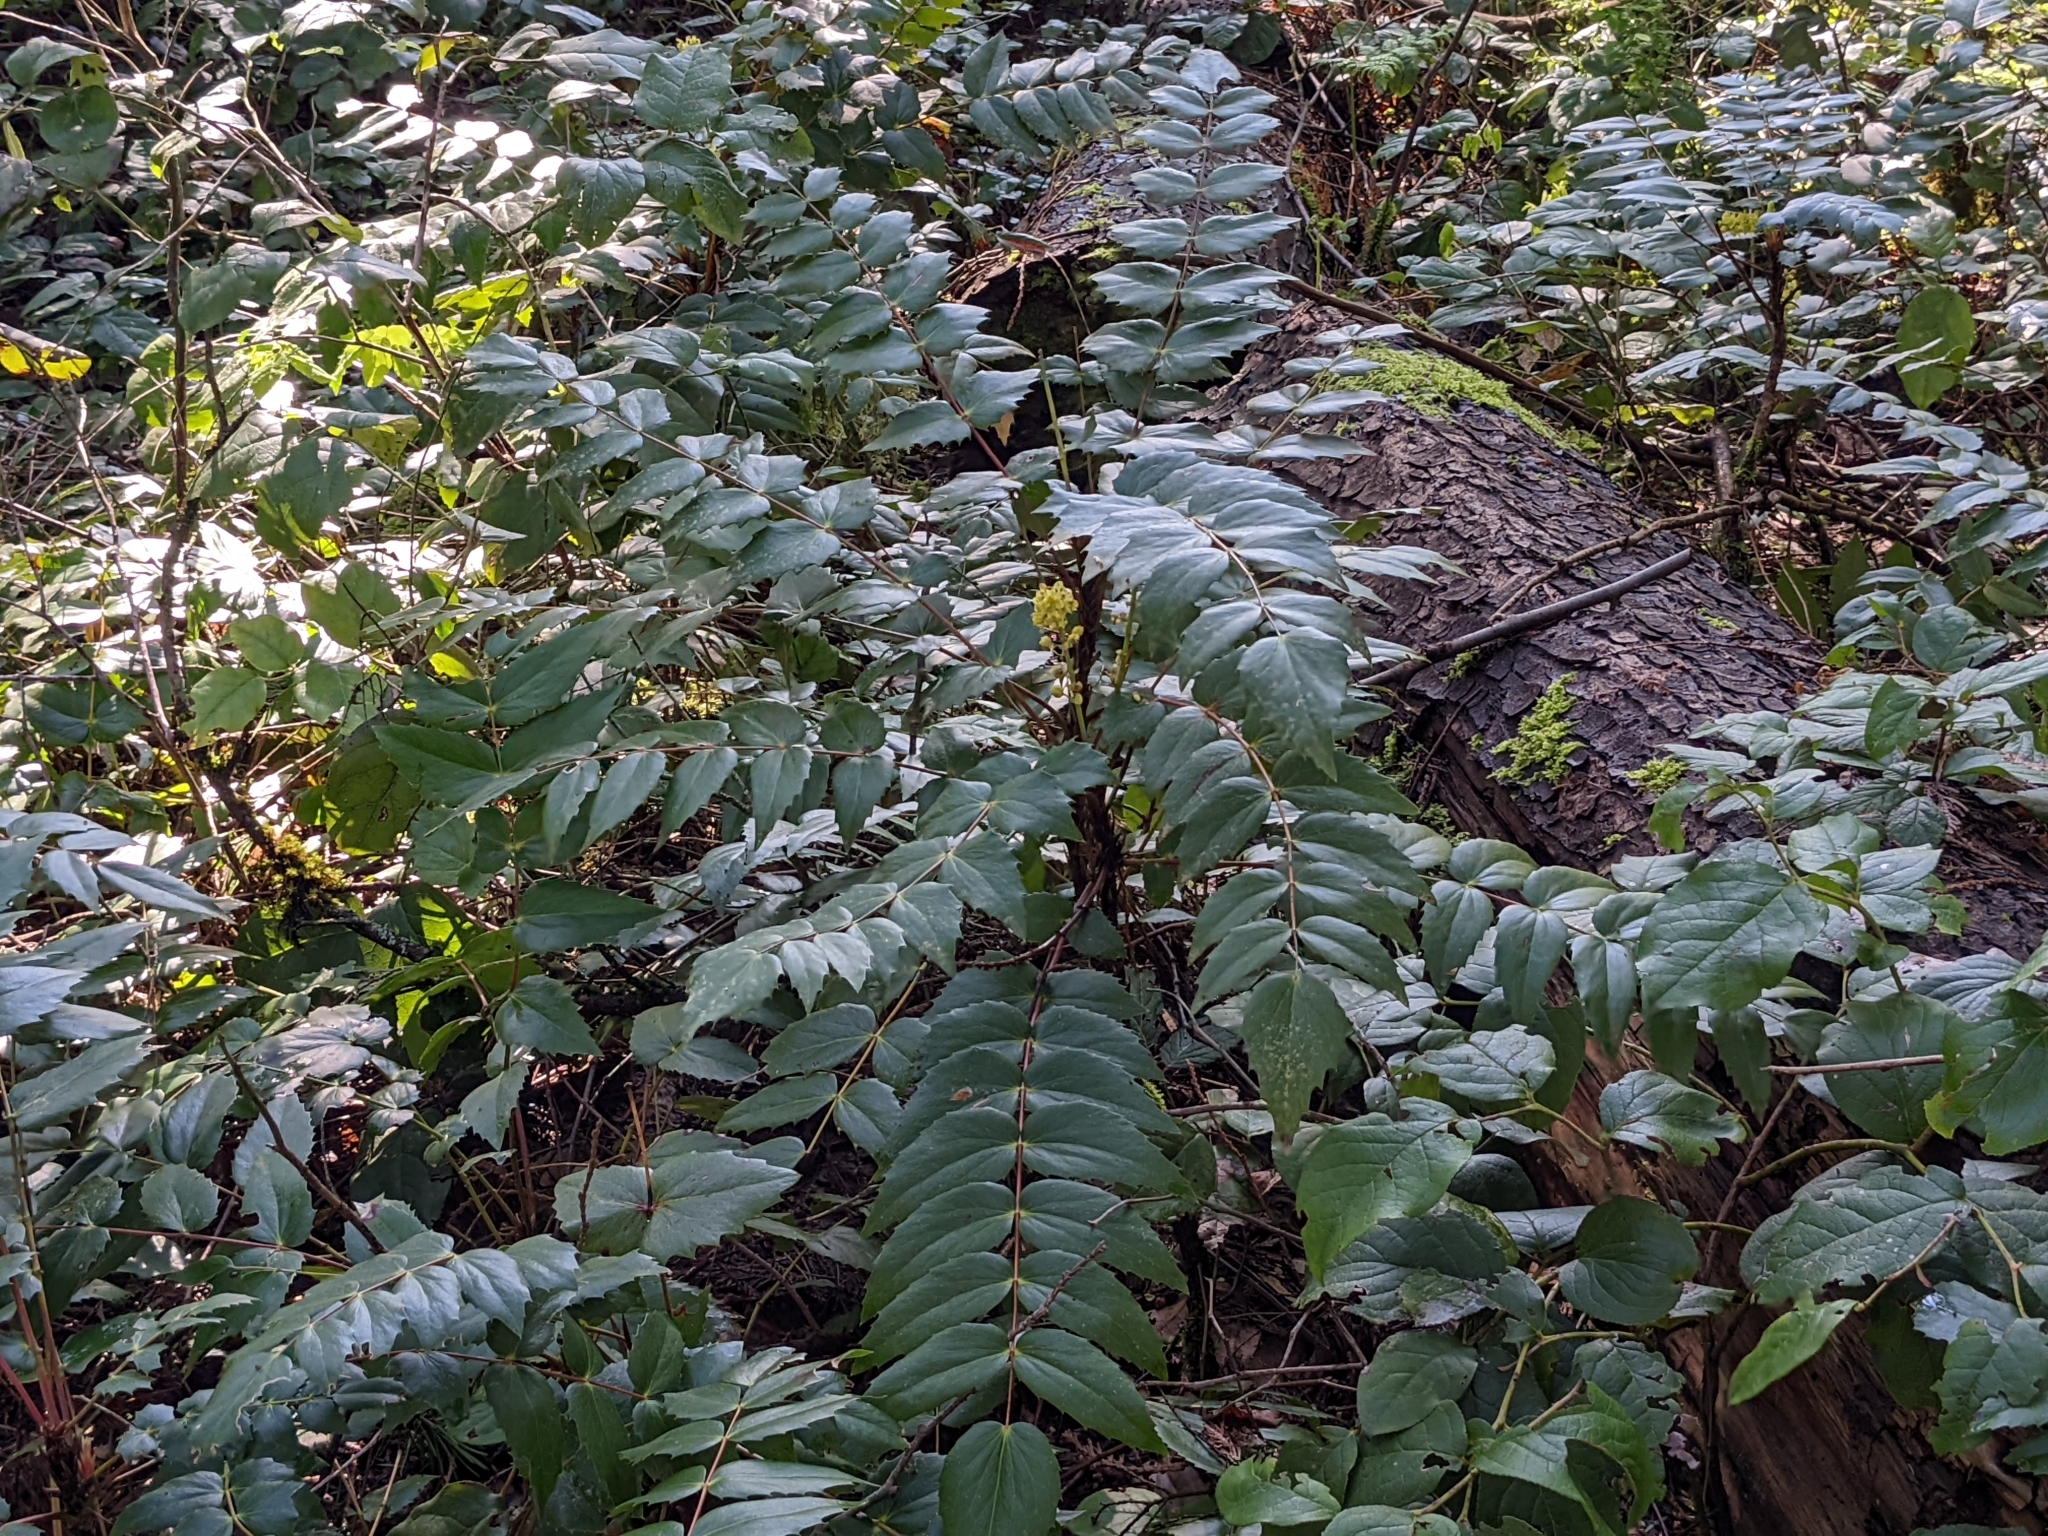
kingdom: Plantae
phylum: Tracheophyta
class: Magnoliopsida
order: Ranunculales
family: Berberidaceae
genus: Mahonia
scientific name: Mahonia nervosa
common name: Cascade oregon-grape
